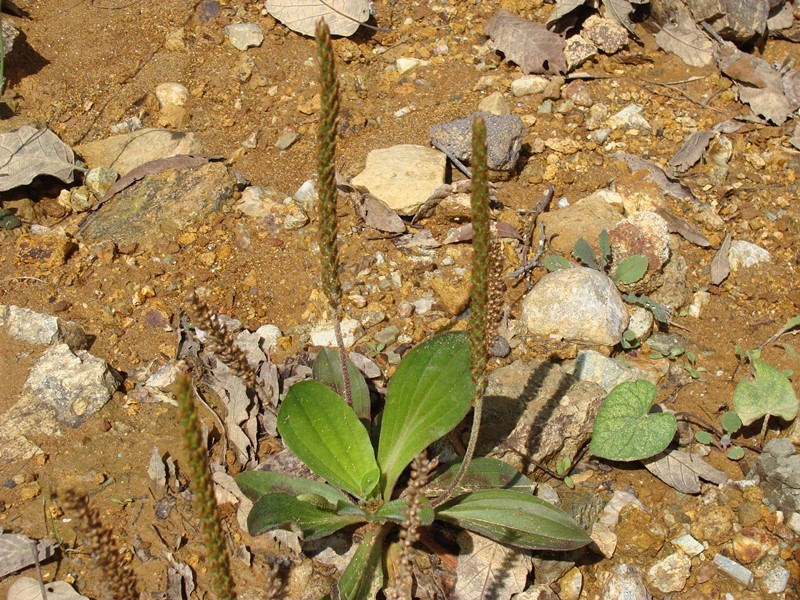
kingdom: Plantae
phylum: Tracheophyta
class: Magnoliopsida
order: Lamiales
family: Plantaginaceae
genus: Plantago
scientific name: Plantago australis
